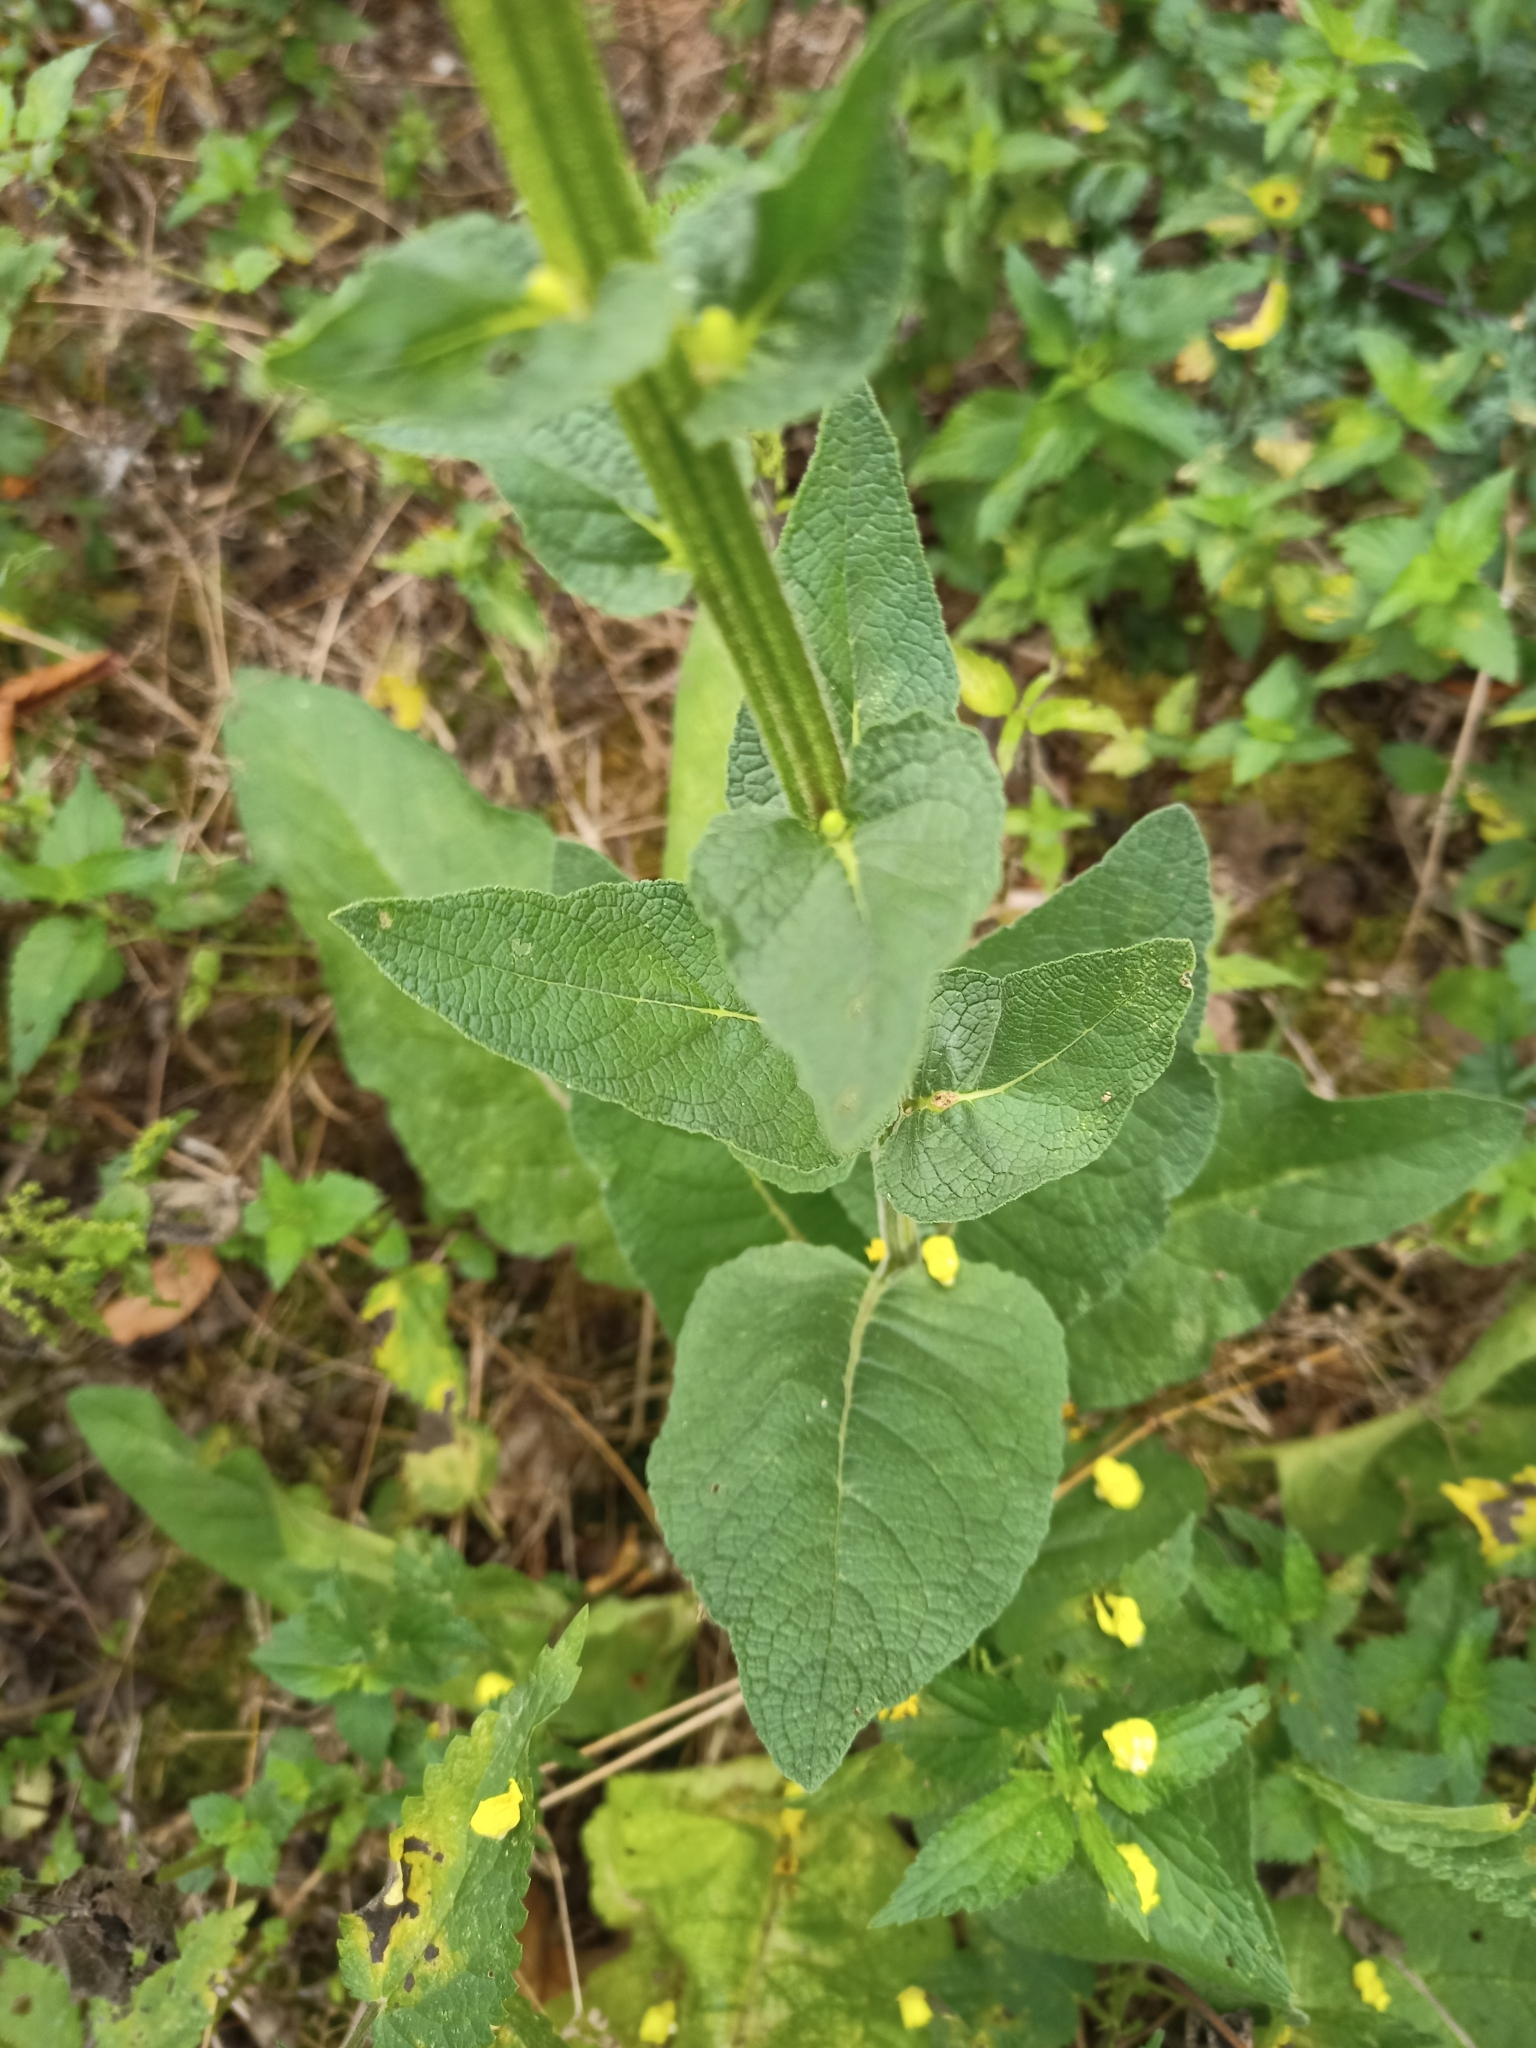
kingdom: Plantae
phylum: Tracheophyta
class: Magnoliopsida
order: Lamiales
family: Scrophulariaceae
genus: Verbascum
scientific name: Verbascum nigrum
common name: Dark mullein
